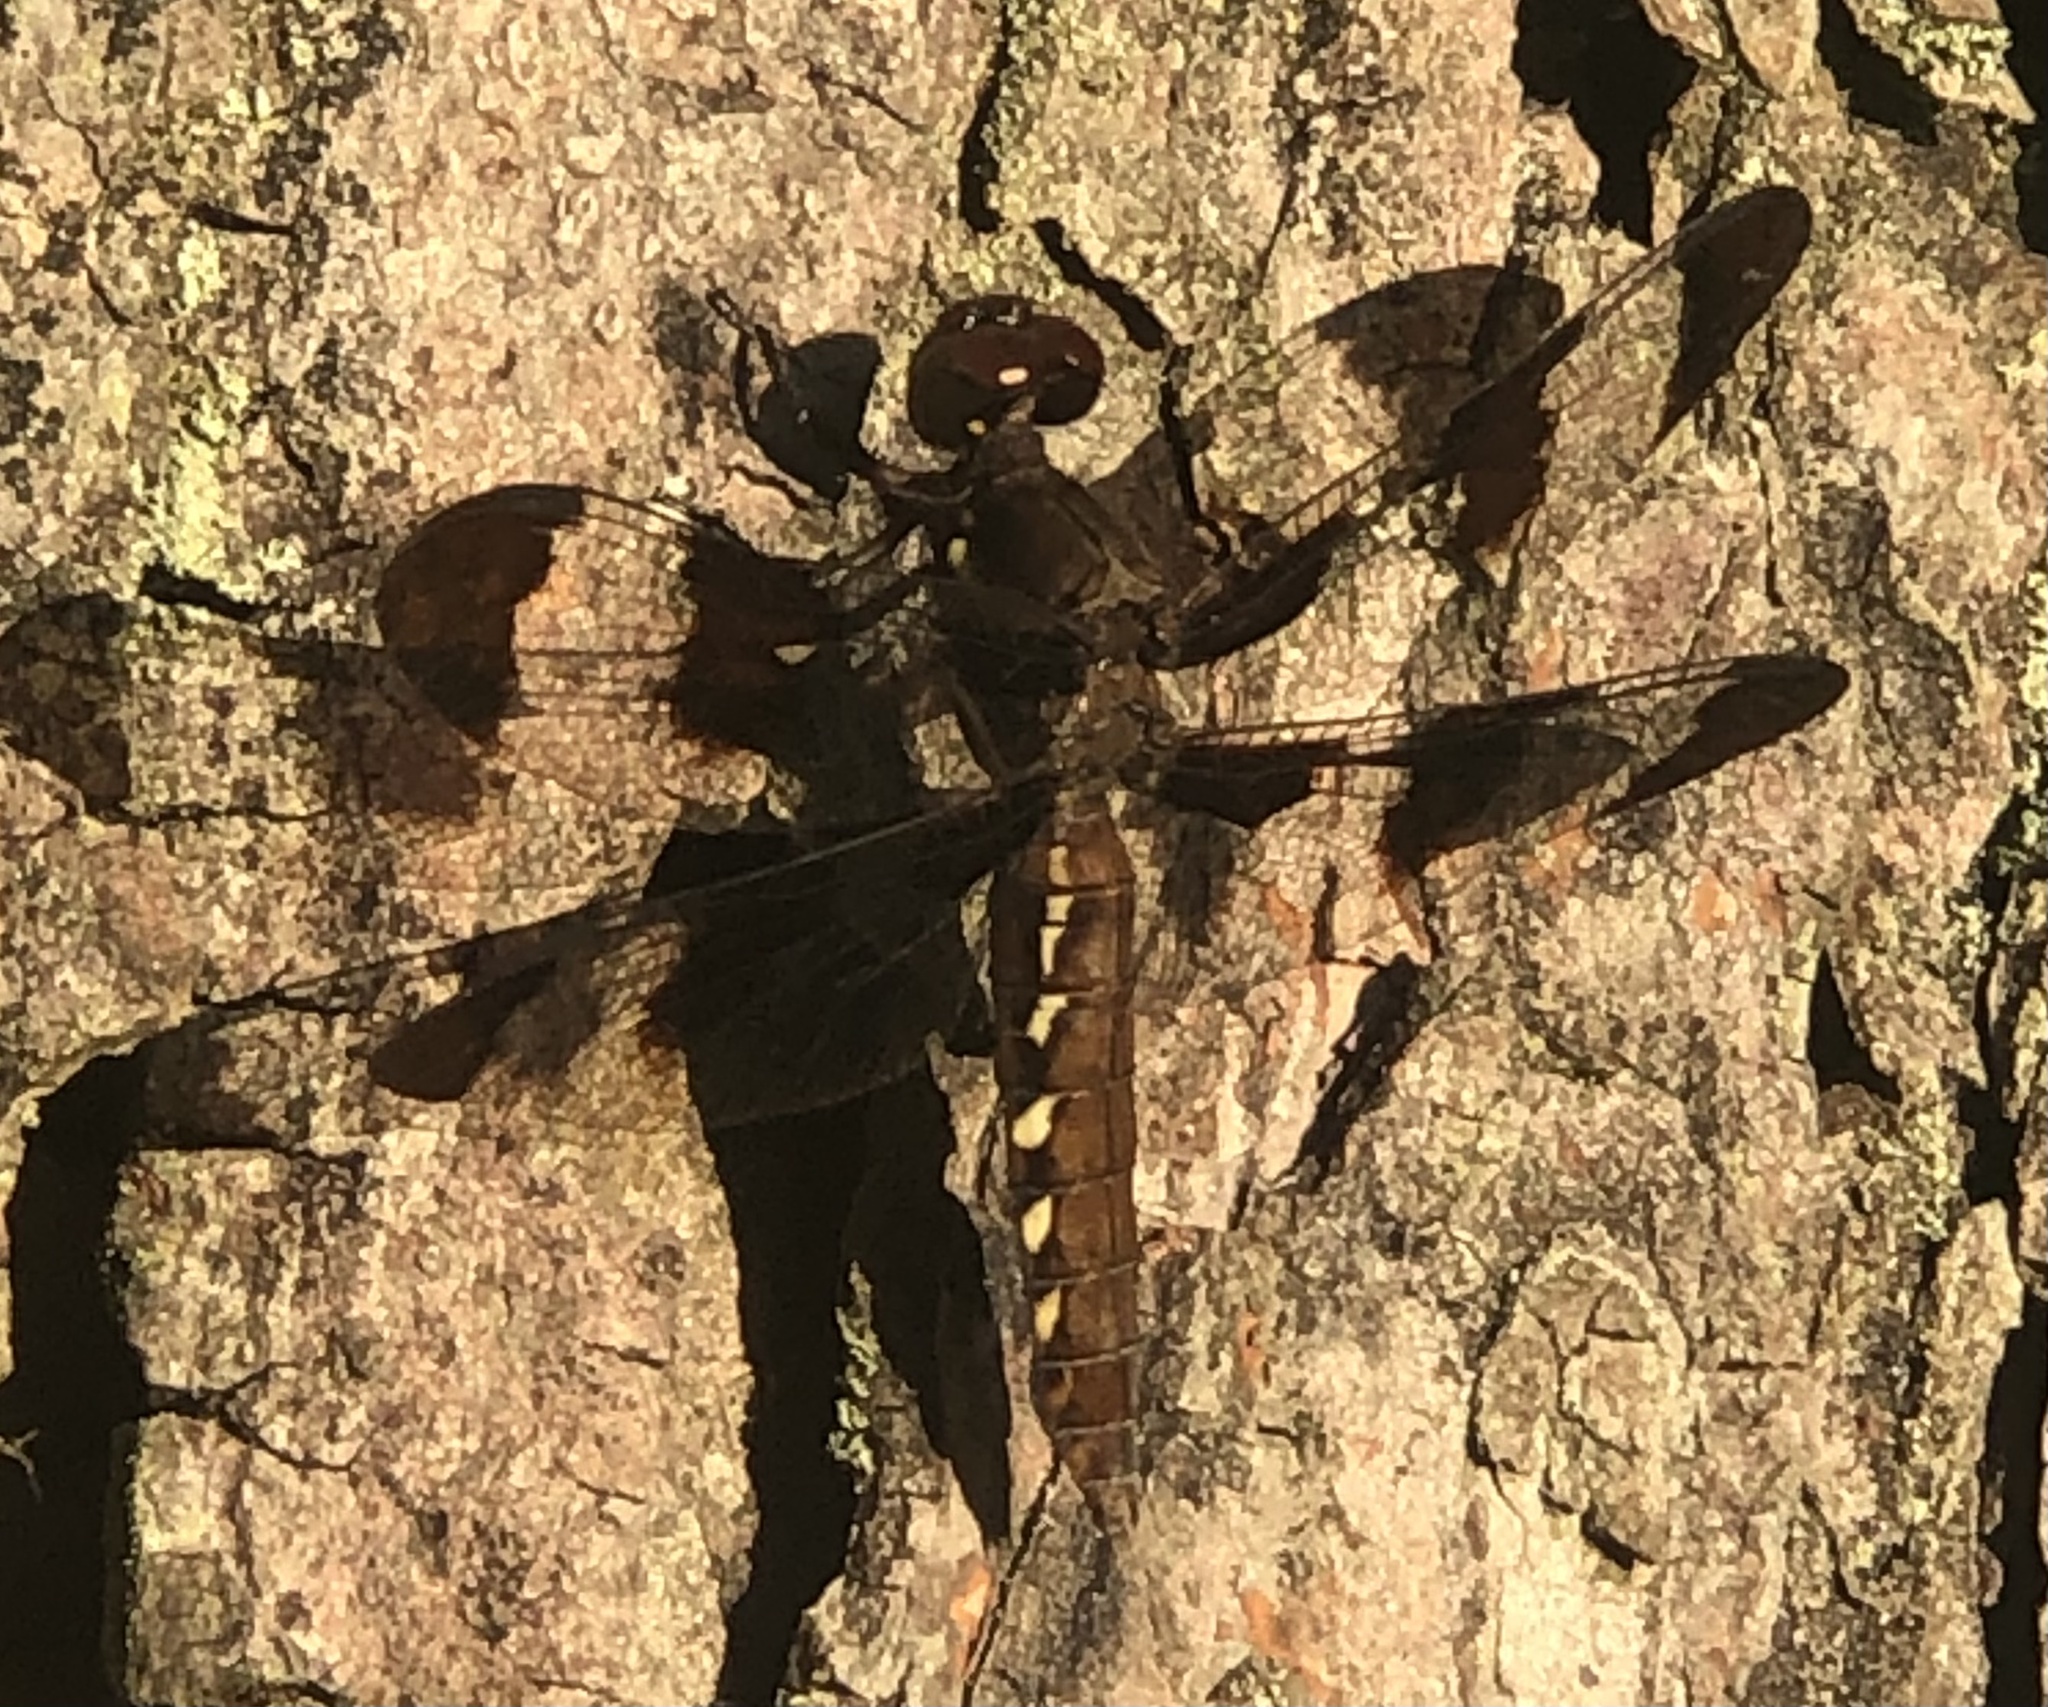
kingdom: Animalia
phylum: Arthropoda
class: Insecta
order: Odonata
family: Libellulidae
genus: Plathemis
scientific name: Plathemis lydia
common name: Common whitetail
